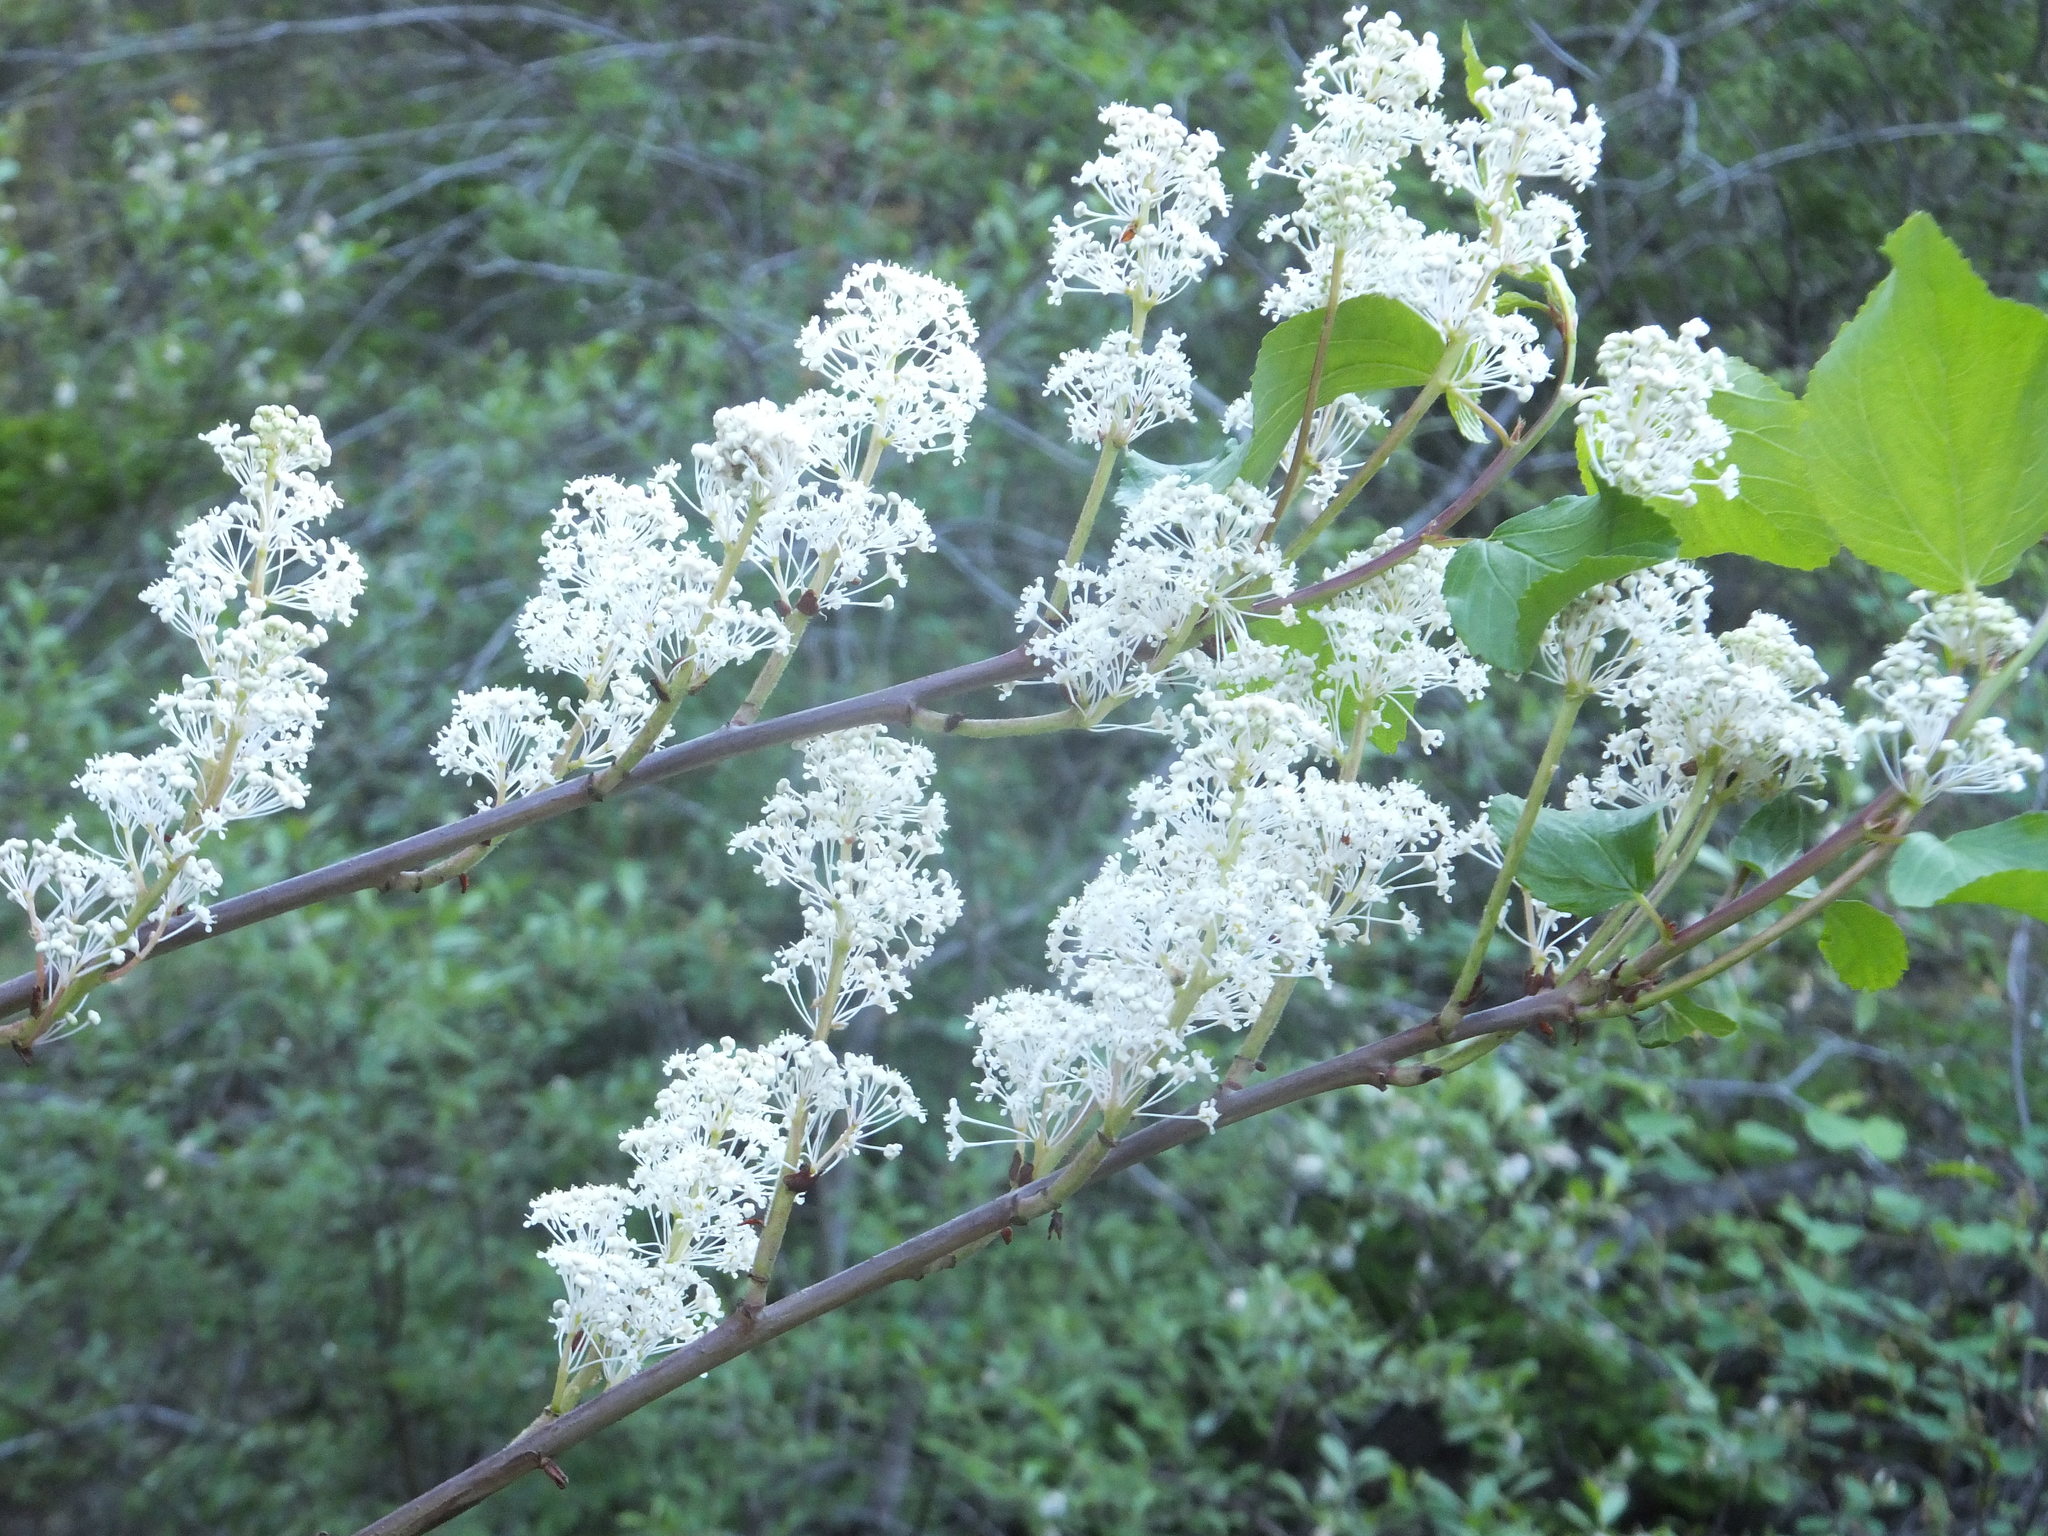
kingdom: Plantae
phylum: Tracheophyta
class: Magnoliopsida
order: Rosales
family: Rhamnaceae
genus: Ceanothus
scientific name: Ceanothus sanguineus
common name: Teatree
